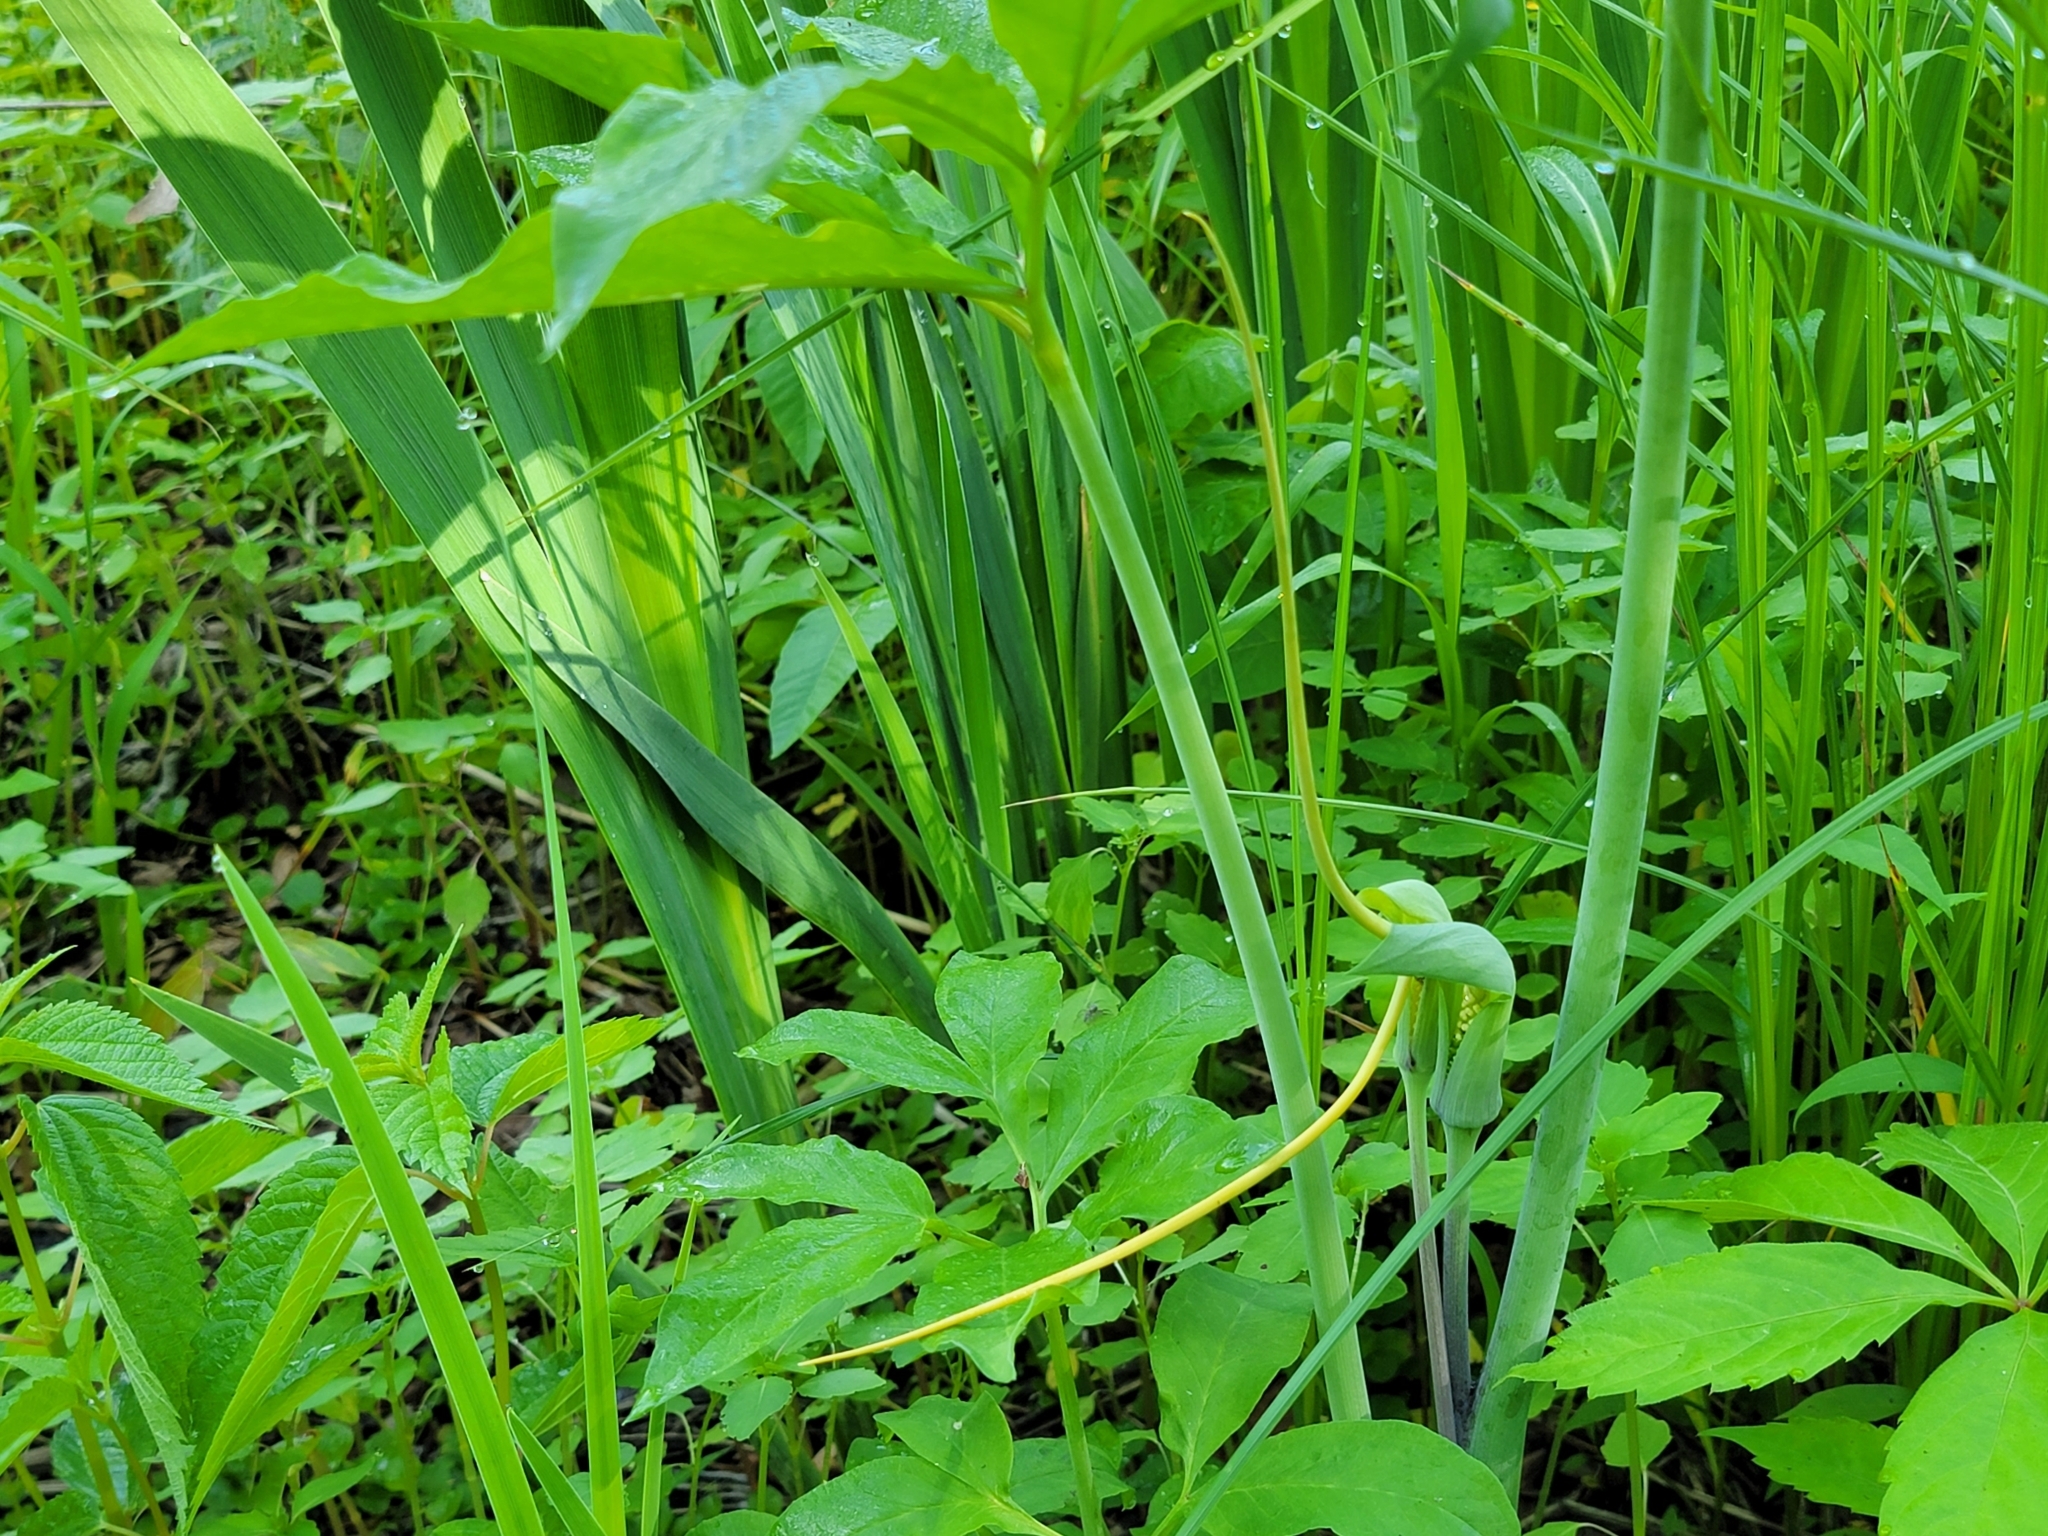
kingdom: Plantae
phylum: Tracheophyta
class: Liliopsida
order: Alismatales
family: Araceae
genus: Arisaema
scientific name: Arisaema dracontium
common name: Dragon-arum
